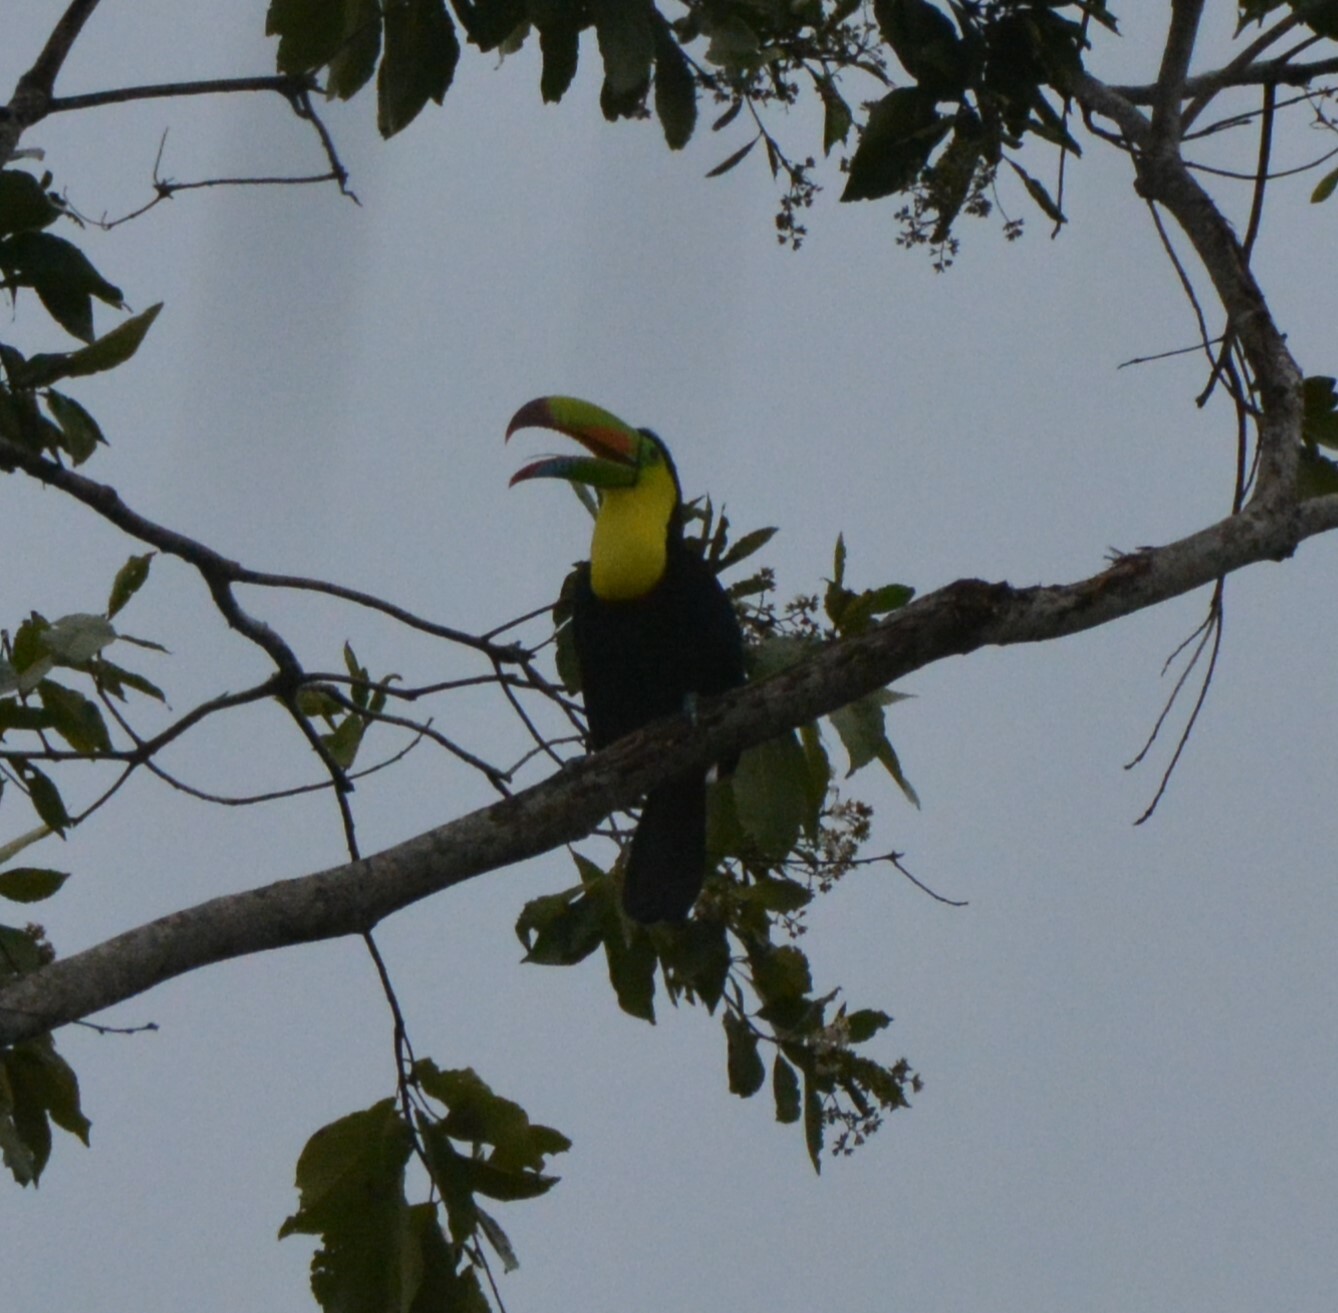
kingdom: Animalia
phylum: Chordata
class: Aves
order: Piciformes
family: Ramphastidae
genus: Ramphastos
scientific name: Ramphastos sulfuratus
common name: Keel-billed toucan
